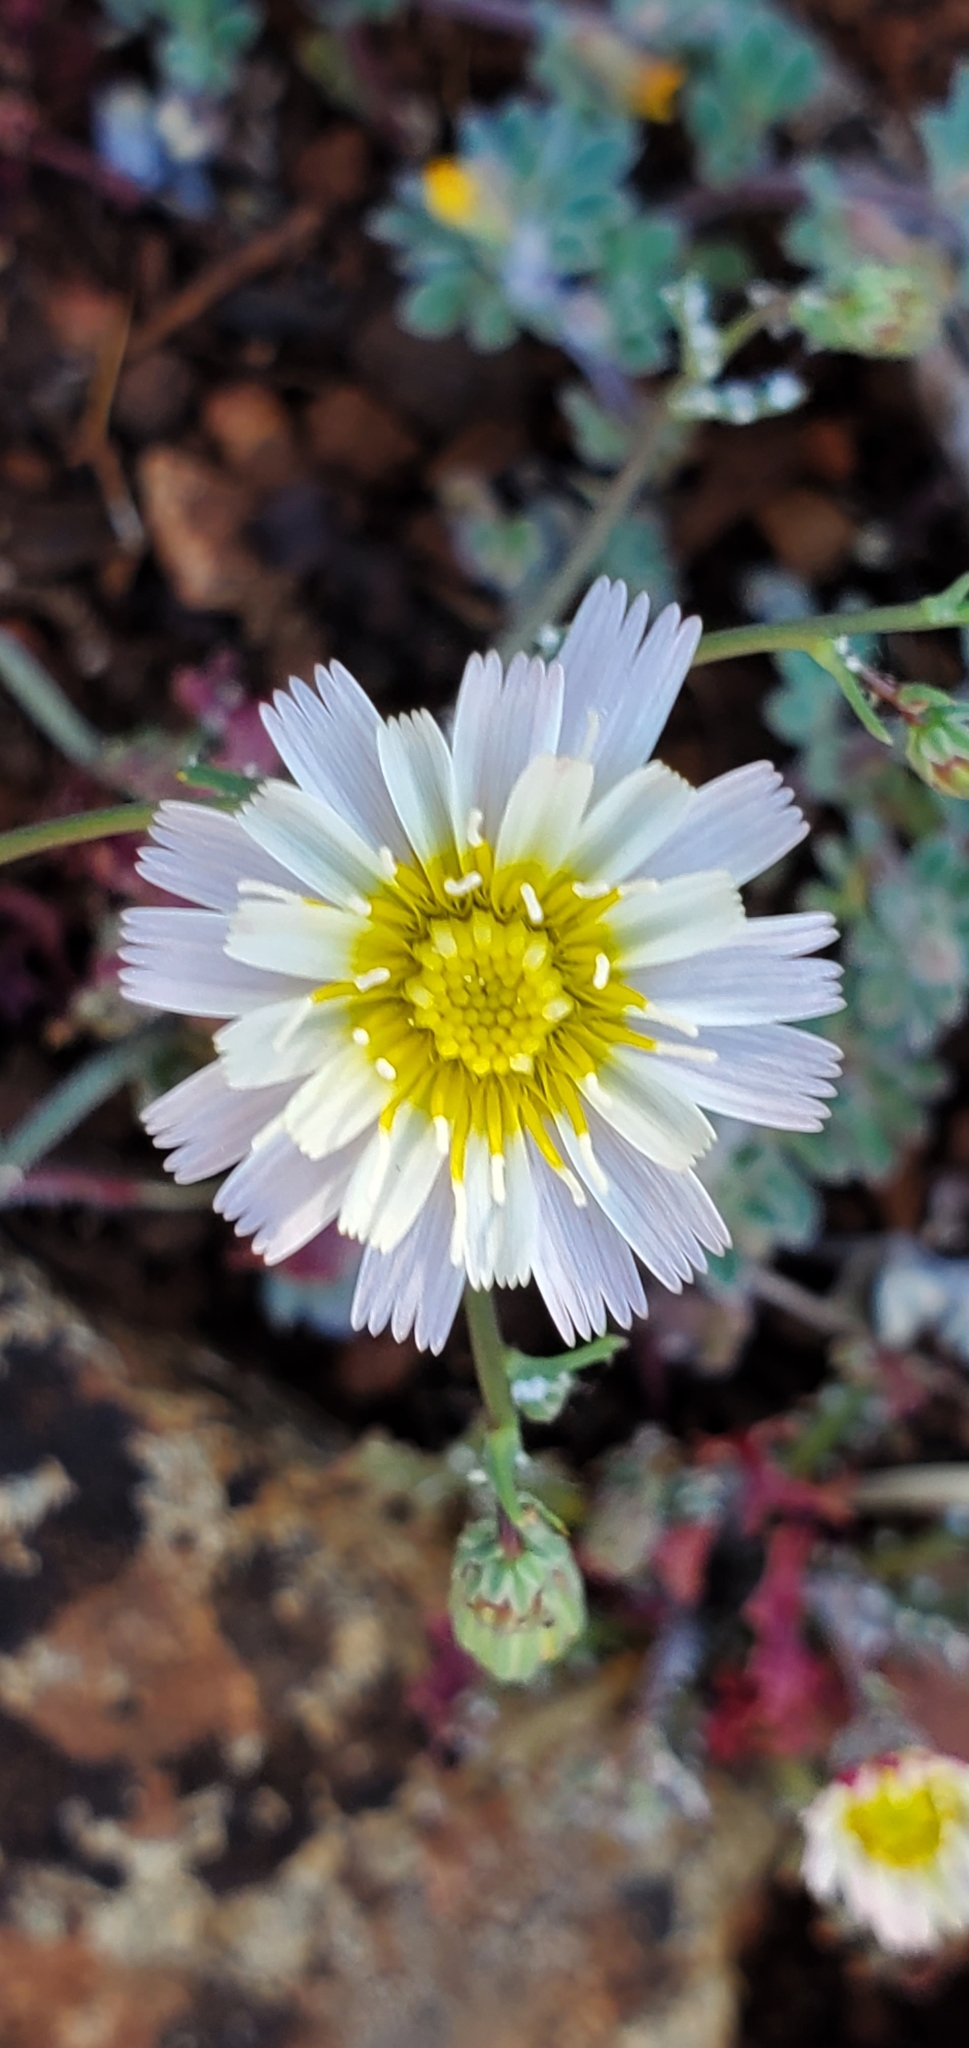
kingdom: Plantae
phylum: Tracheophyta
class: Magnoliopsida
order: Asterales
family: Asteraceae
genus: Malacothrix
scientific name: Malacothrix floccifera
